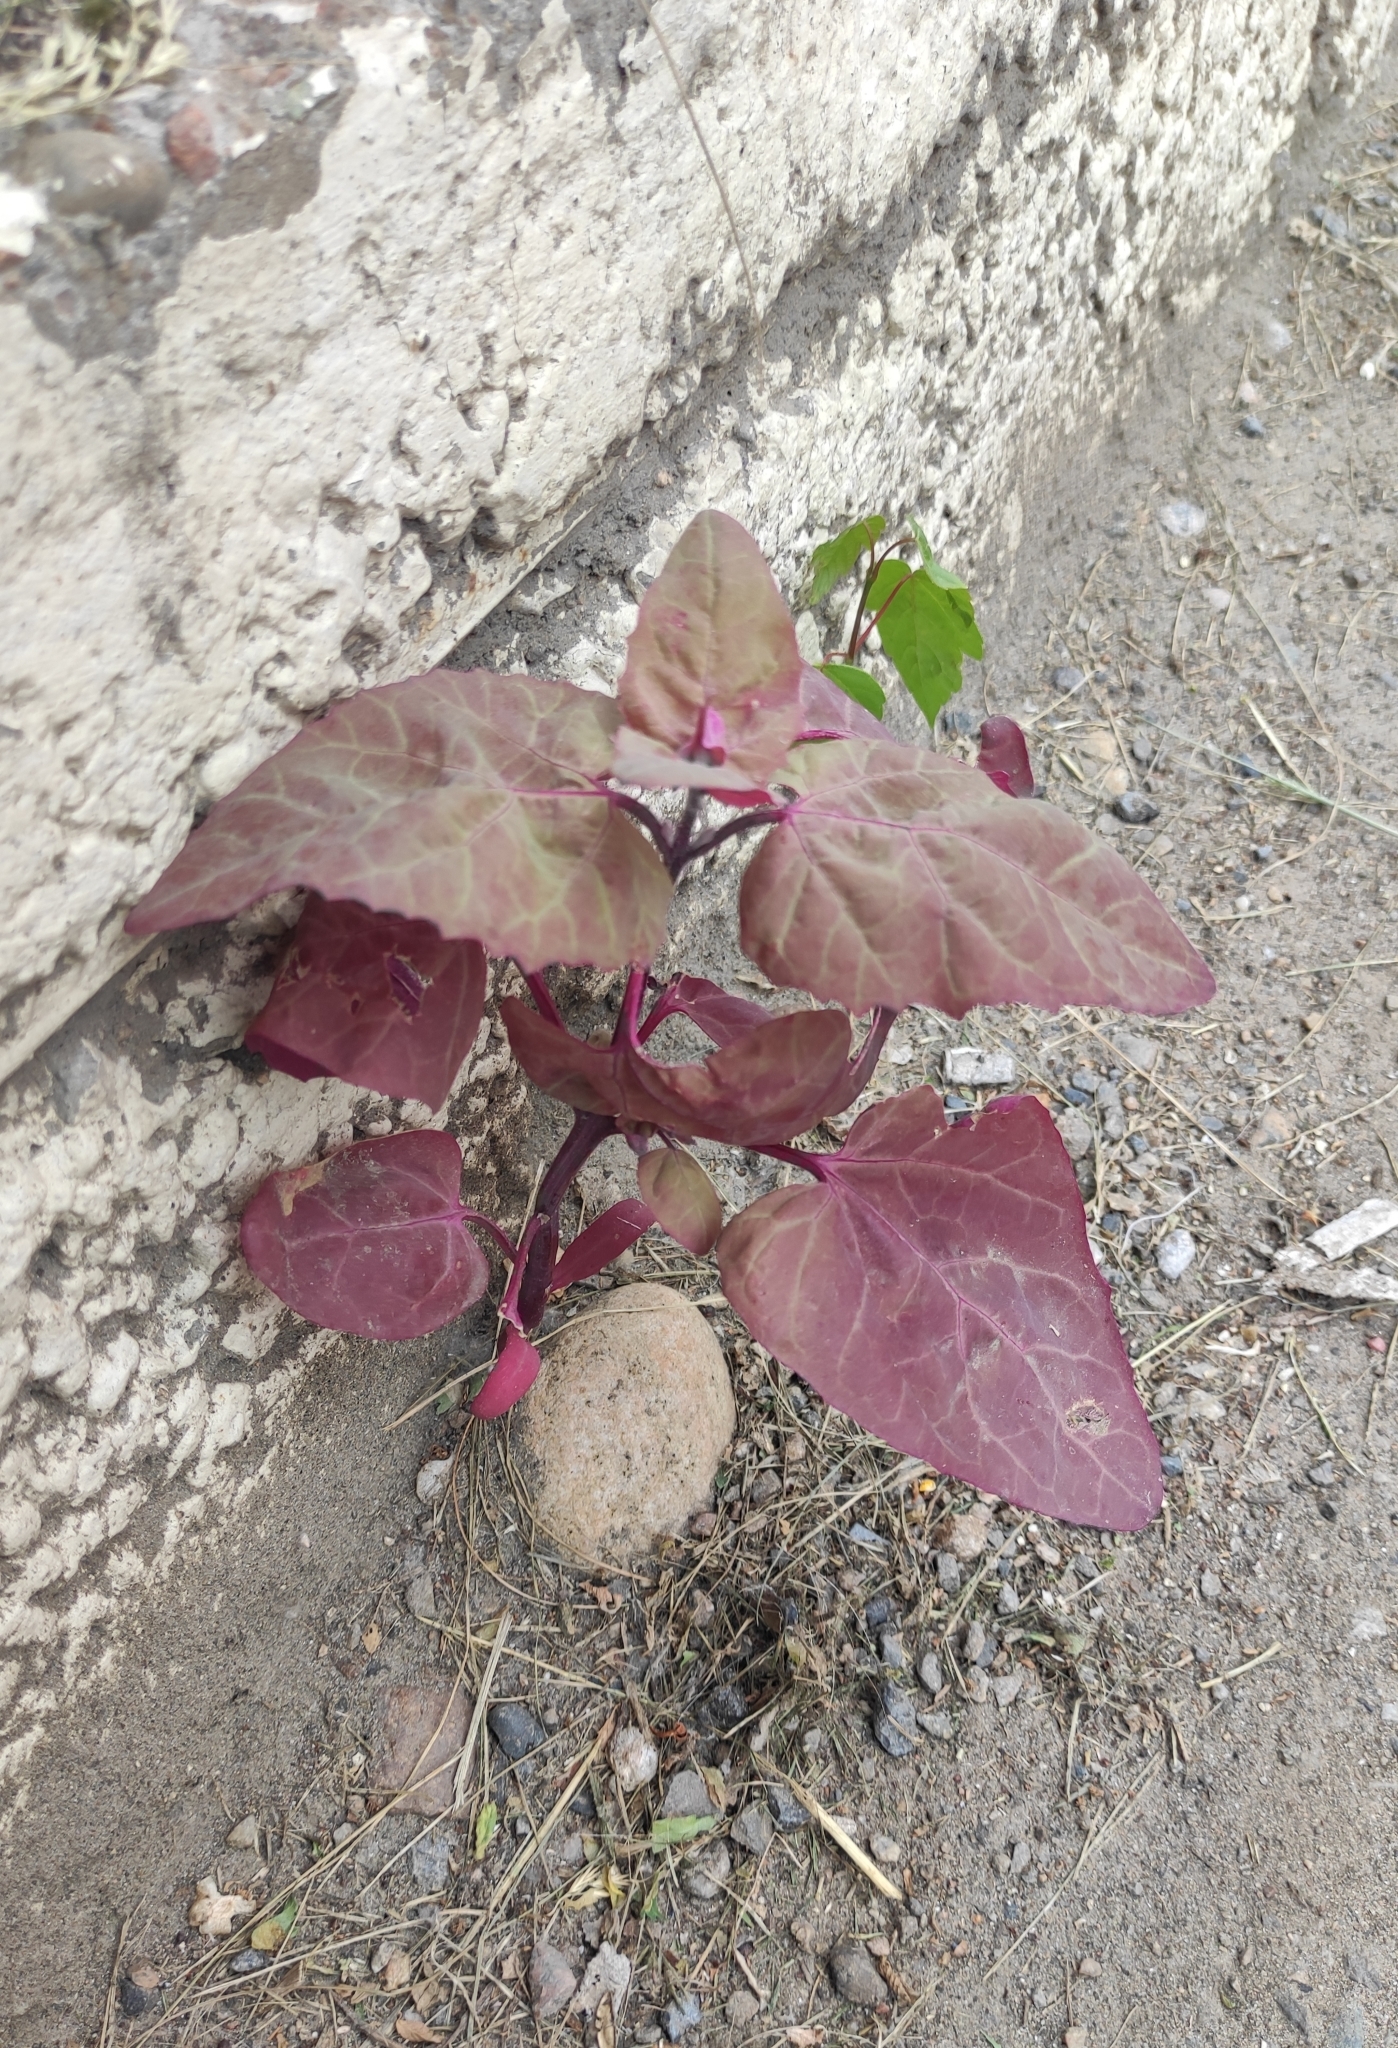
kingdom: Plantae
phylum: Tracheophyta
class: Magnoliopsida
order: Caryophyllales
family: Amaranthaceae
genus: Atriplex
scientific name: Atriplex hortensis
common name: Garden orache
